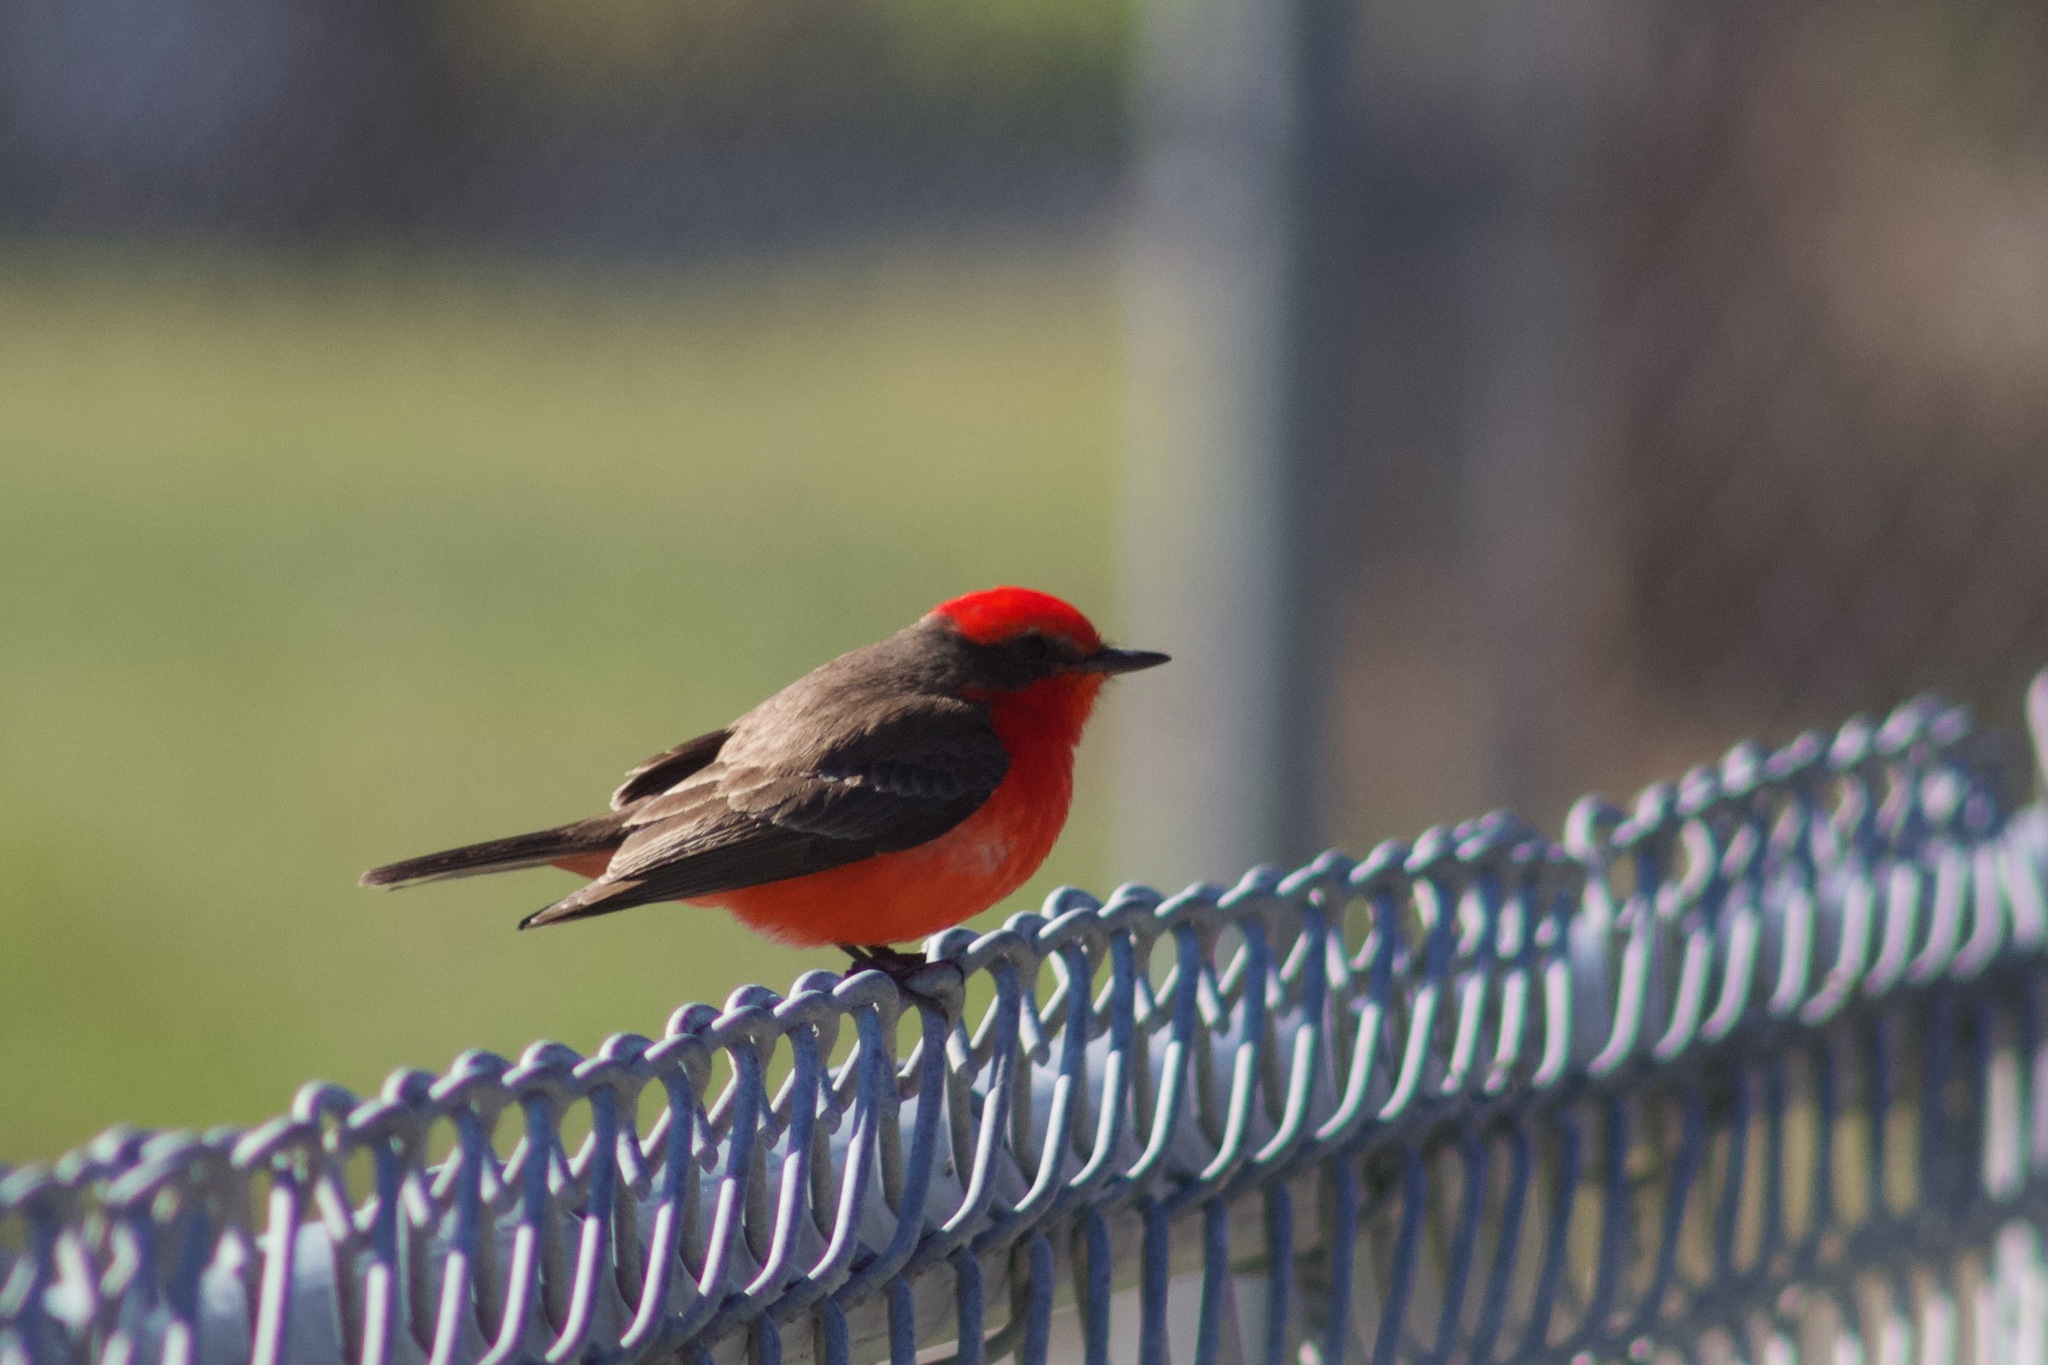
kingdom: Animalia
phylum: Chordata
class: Aves
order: Passeriformes
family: Tyrannidae
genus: Pyrocephalus
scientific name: Pyrocephalus rubinus
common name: Vermilion flycatcher
